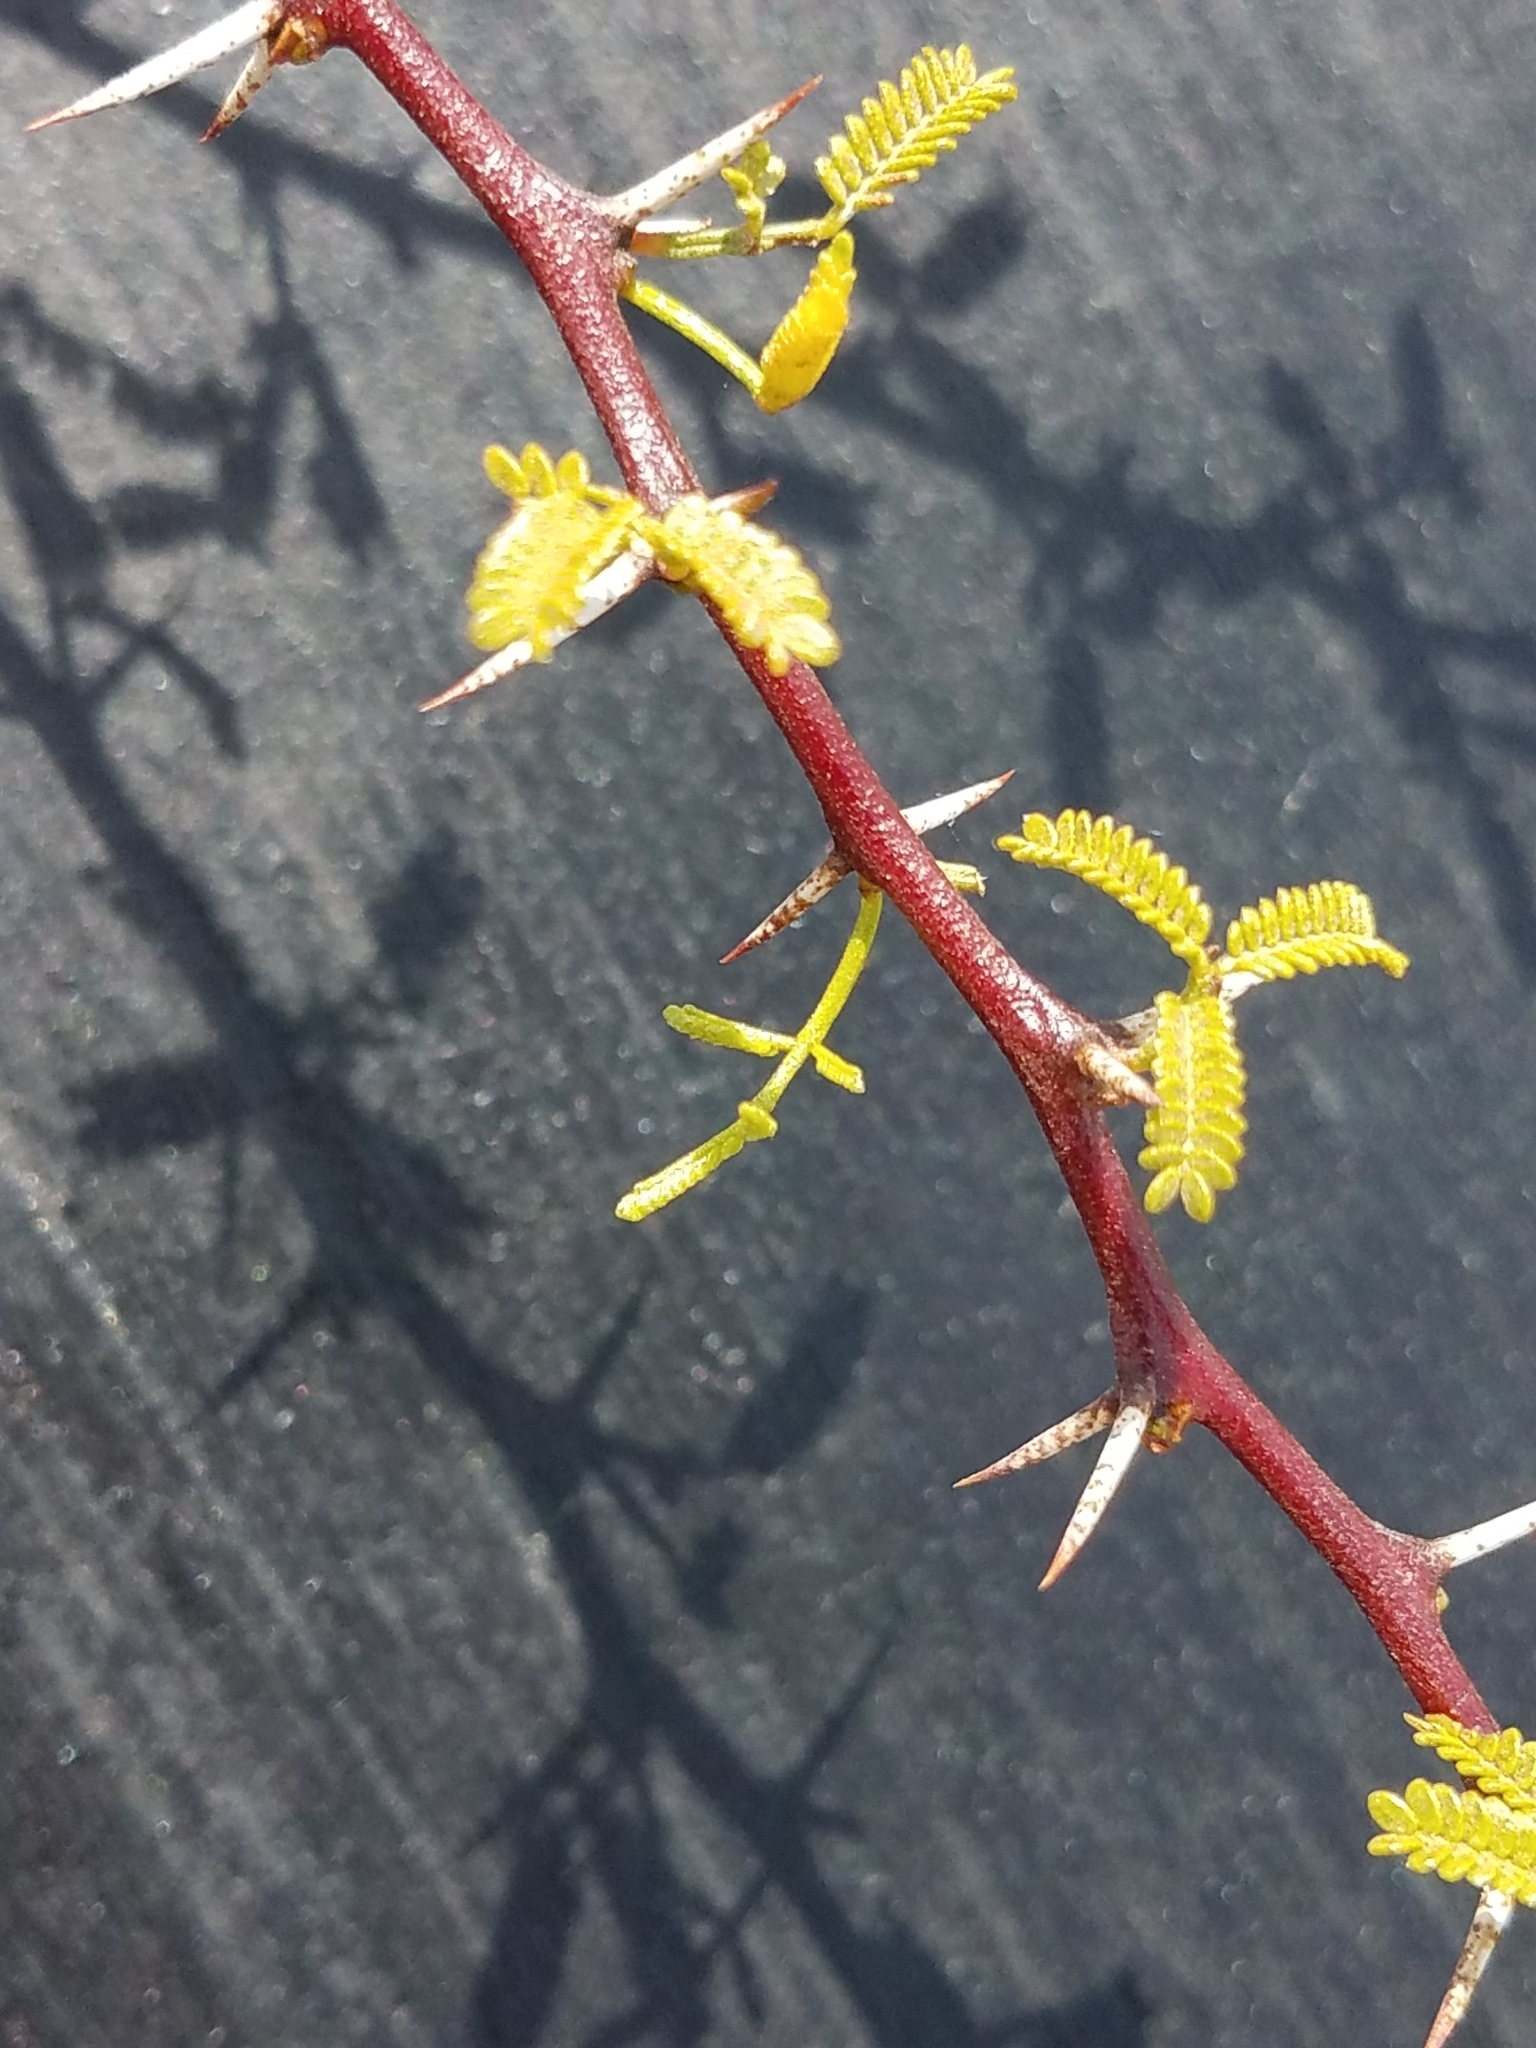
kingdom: Plantae
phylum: Tracheophyta
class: Magnoliopsida
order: Fabales
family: Fabaceae
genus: Vachellia
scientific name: Vachellia vernicosa
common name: Viscid acacia
